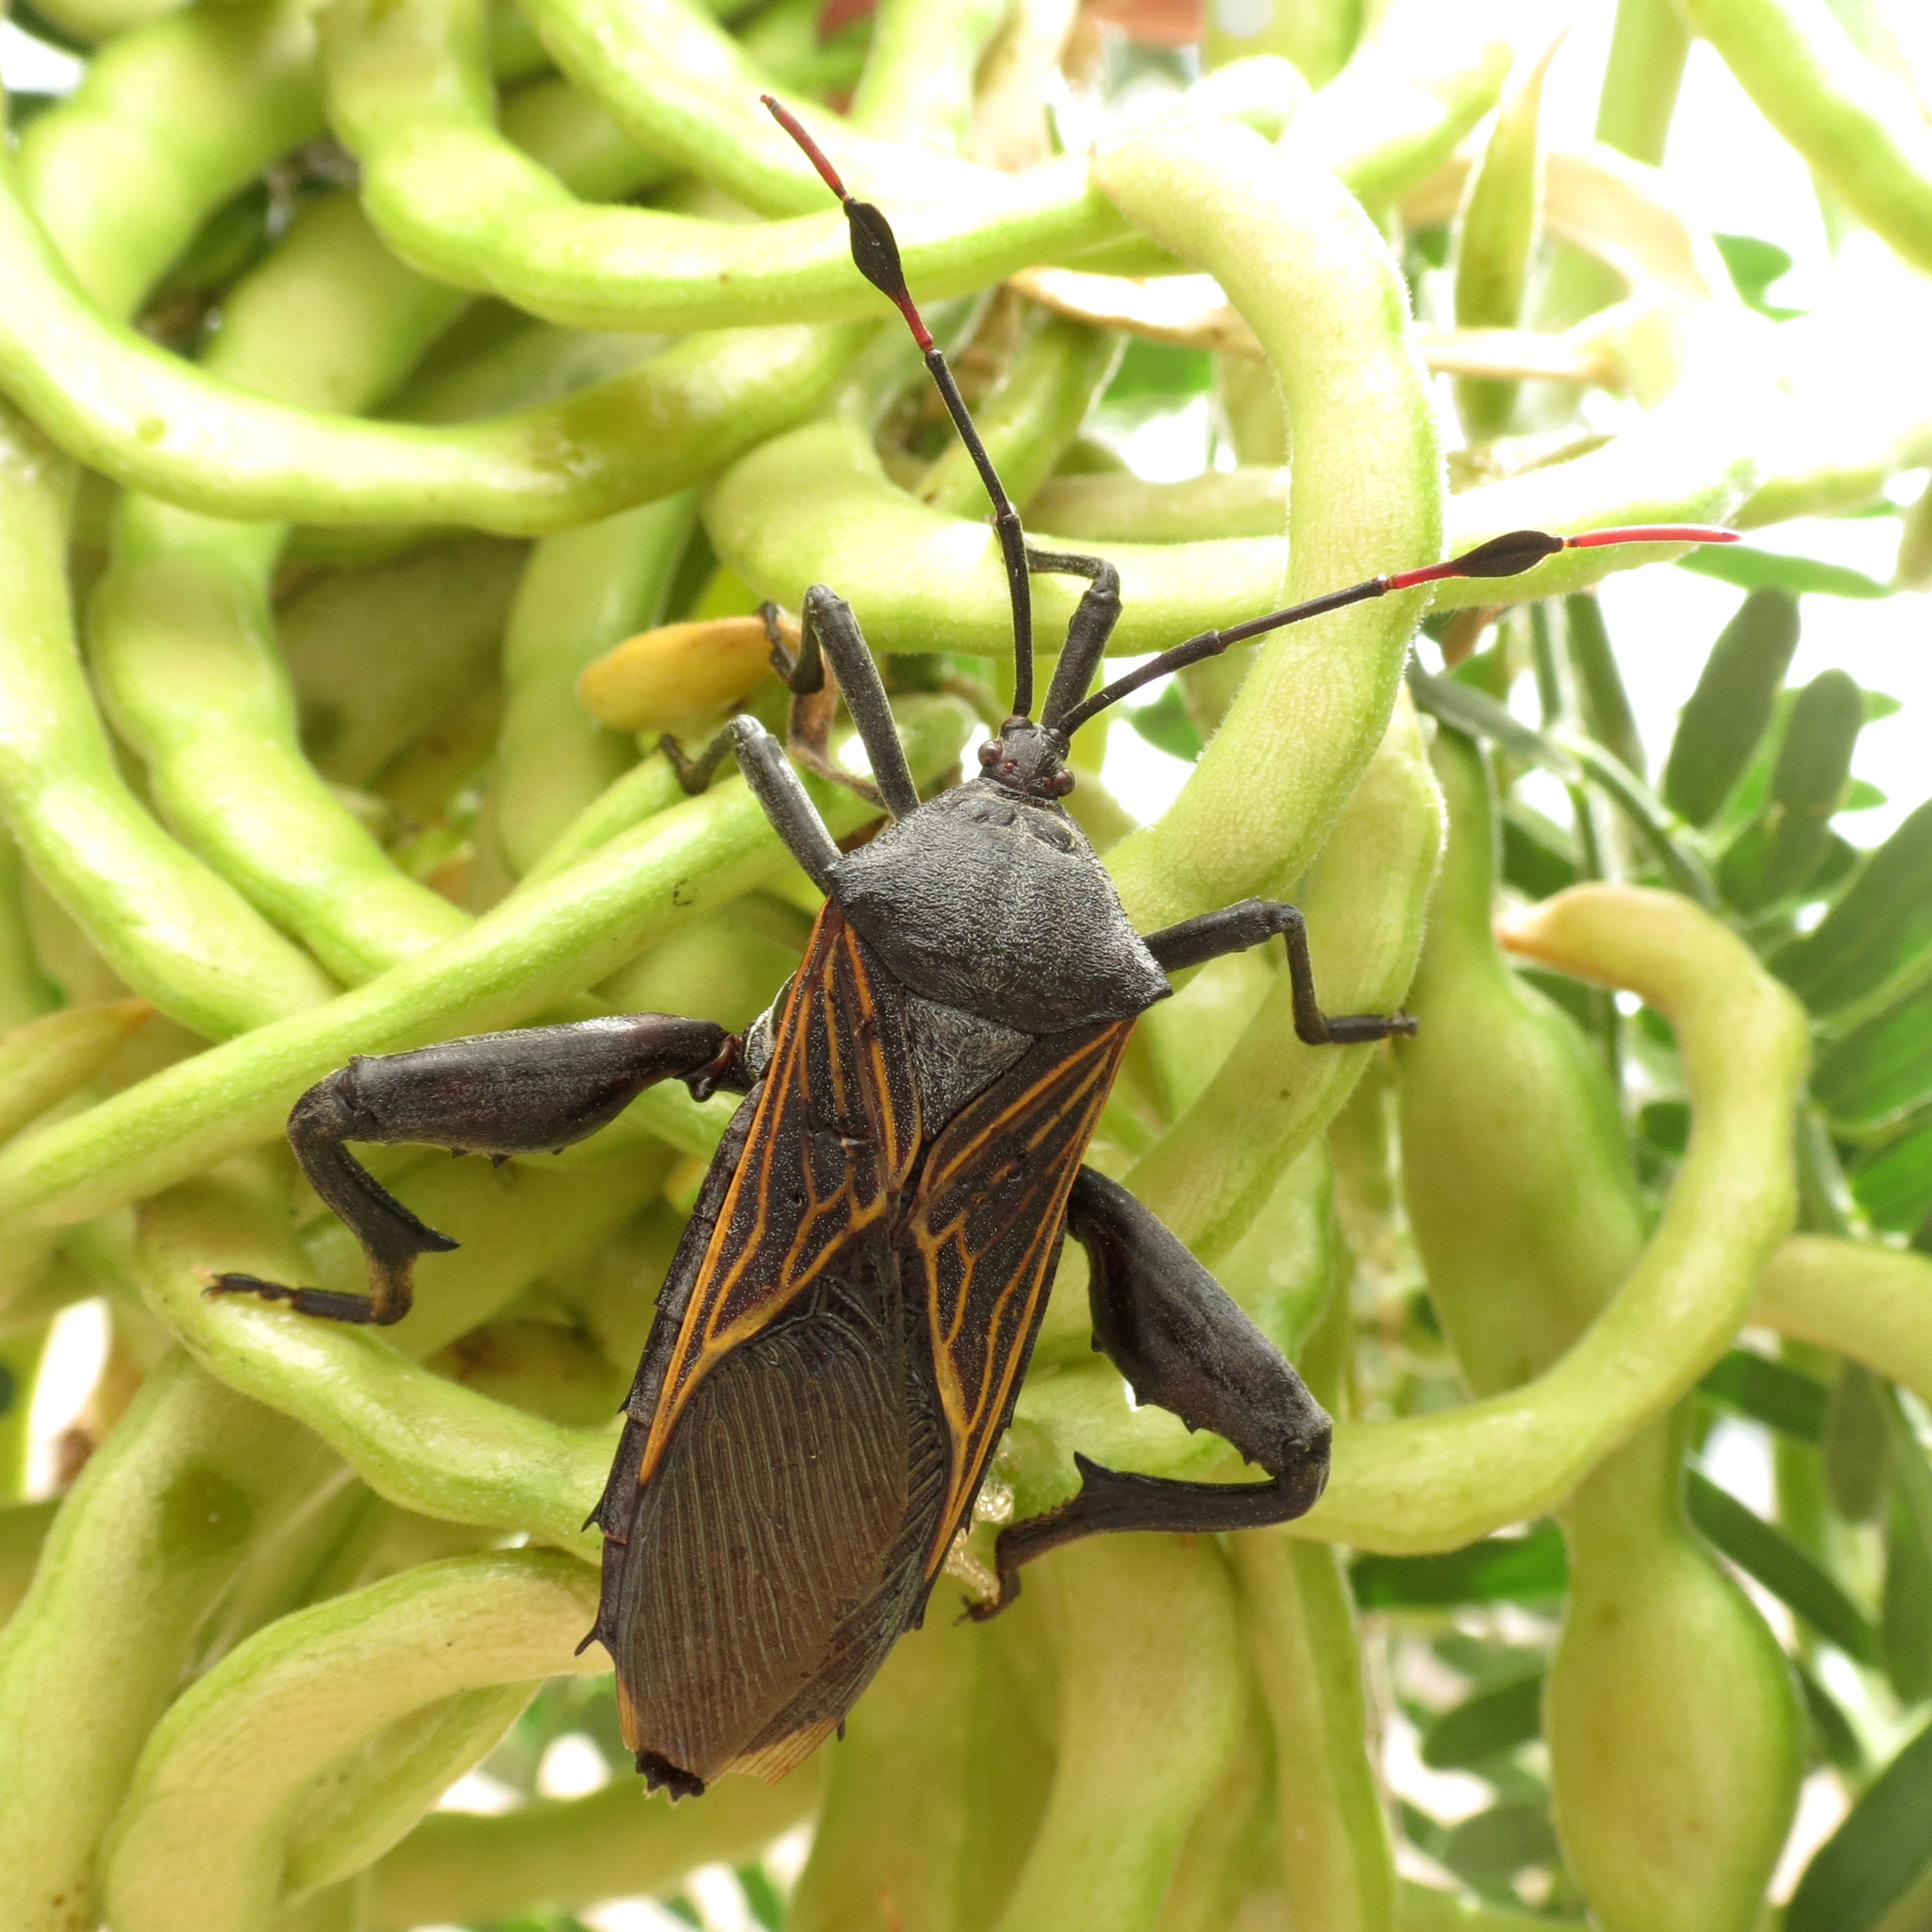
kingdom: Animalia
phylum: Arthropoda
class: Insecta
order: Hemiptera
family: Coreidae
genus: Thasus
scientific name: Thasus neocalifornicus
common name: Giant mesquite bug
